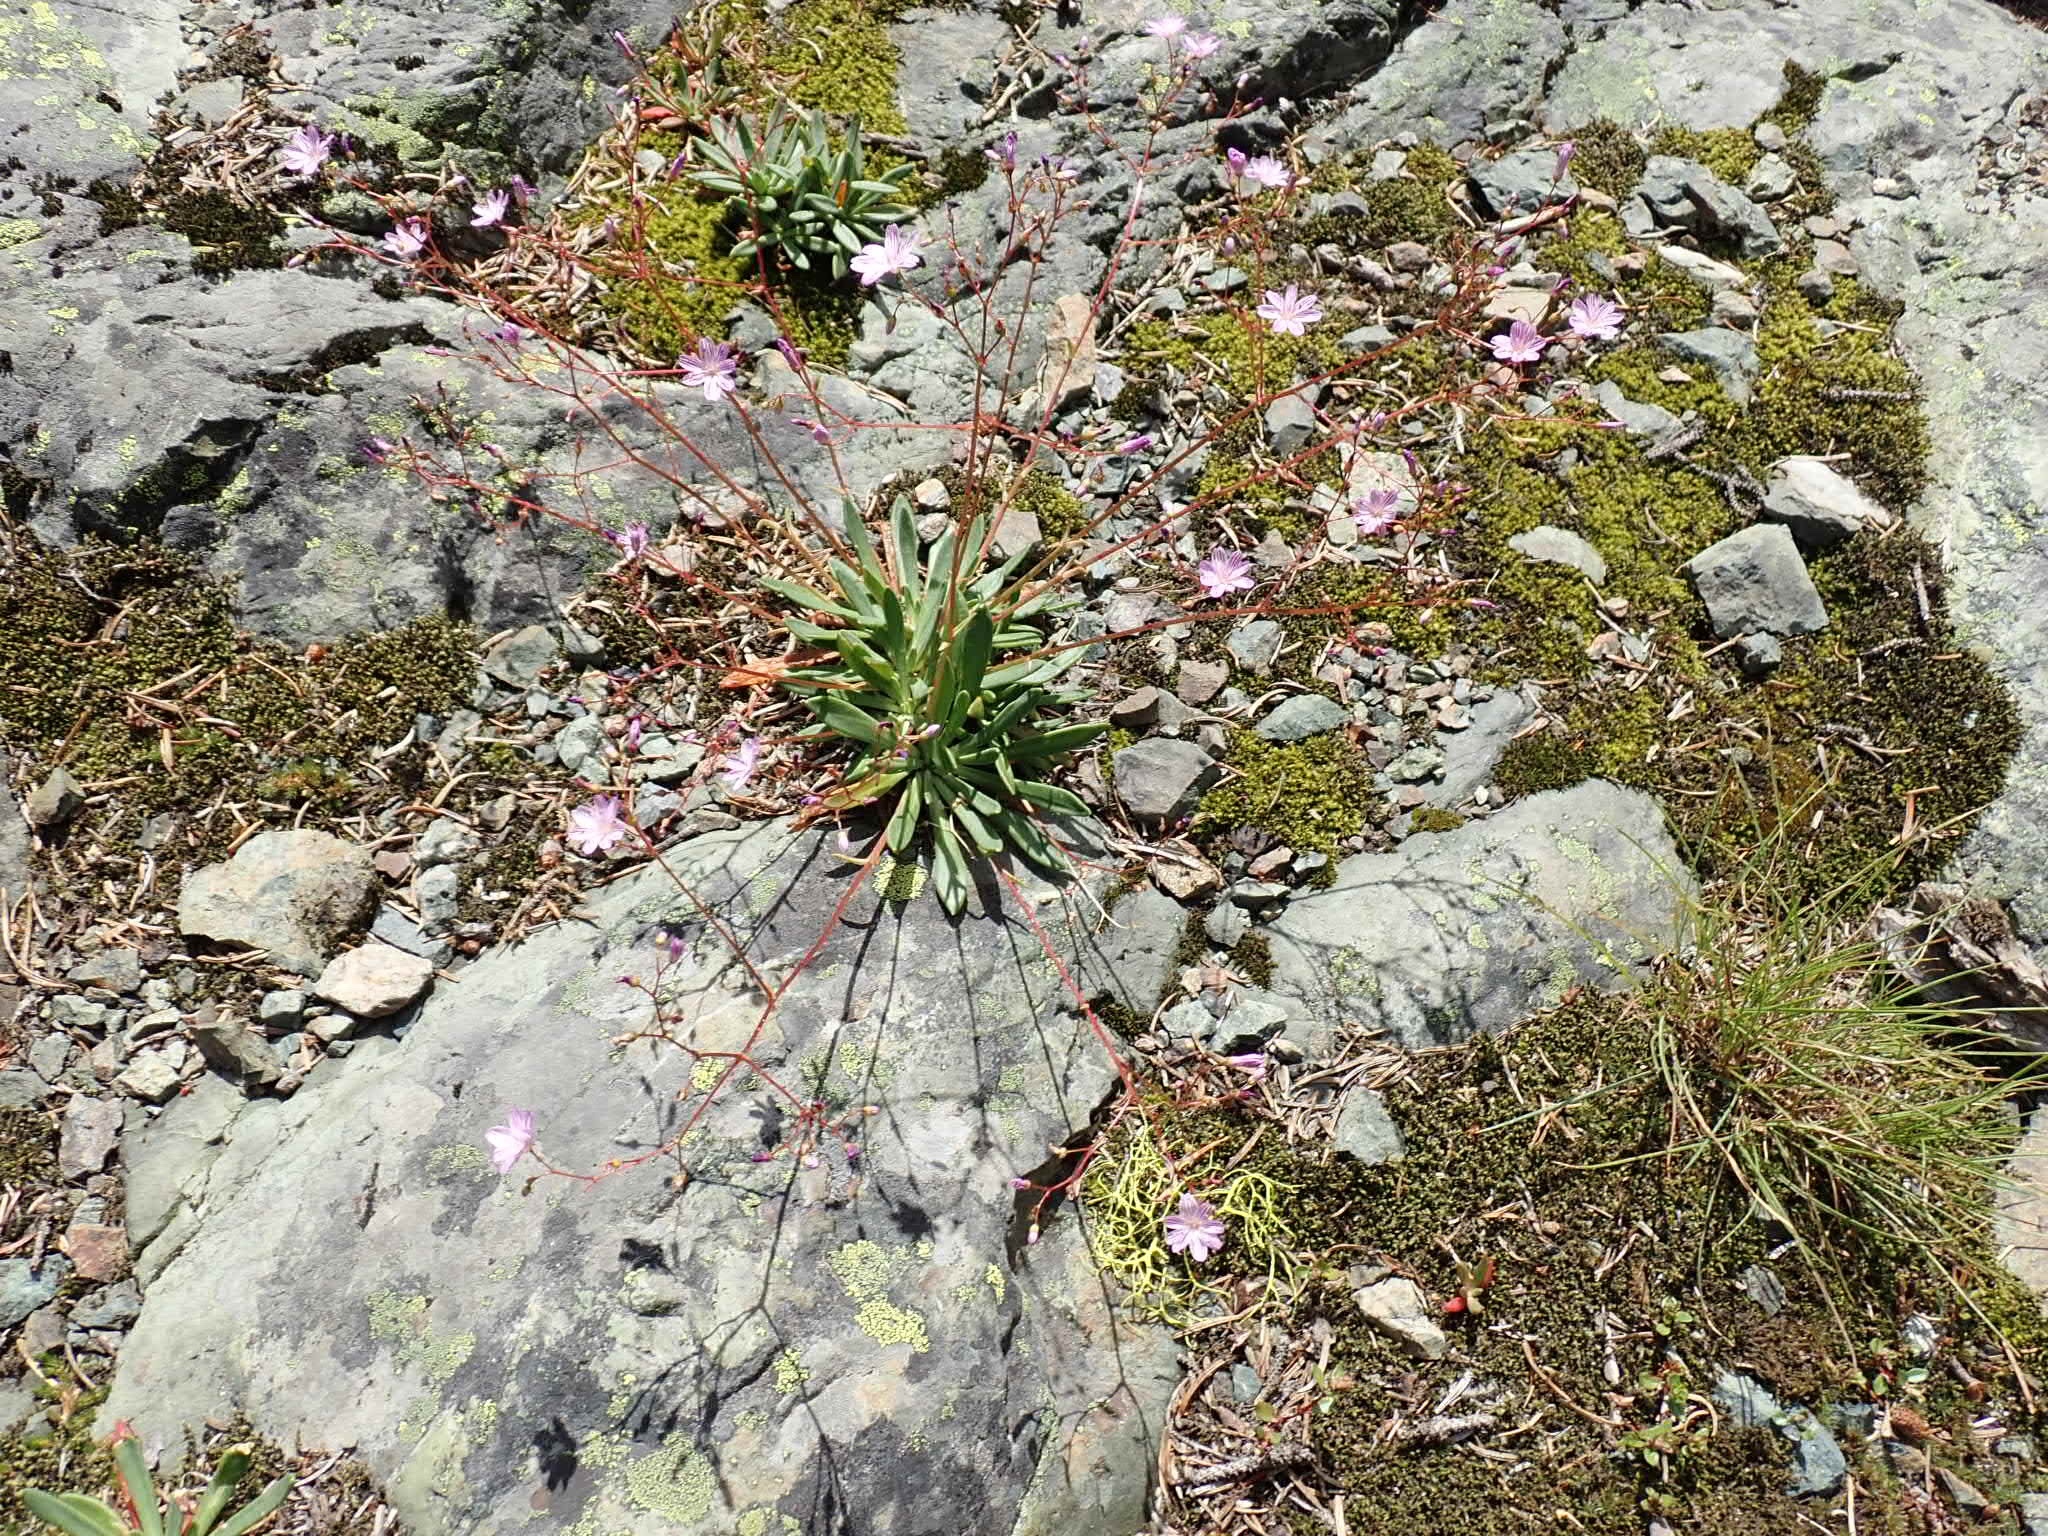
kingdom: Plantae
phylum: Tracheophyta
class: Magnoliopsida
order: Caryophyllales
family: Montiaceae
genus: Lewisia
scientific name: Lewisia columbiana
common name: Columbia lewisia
